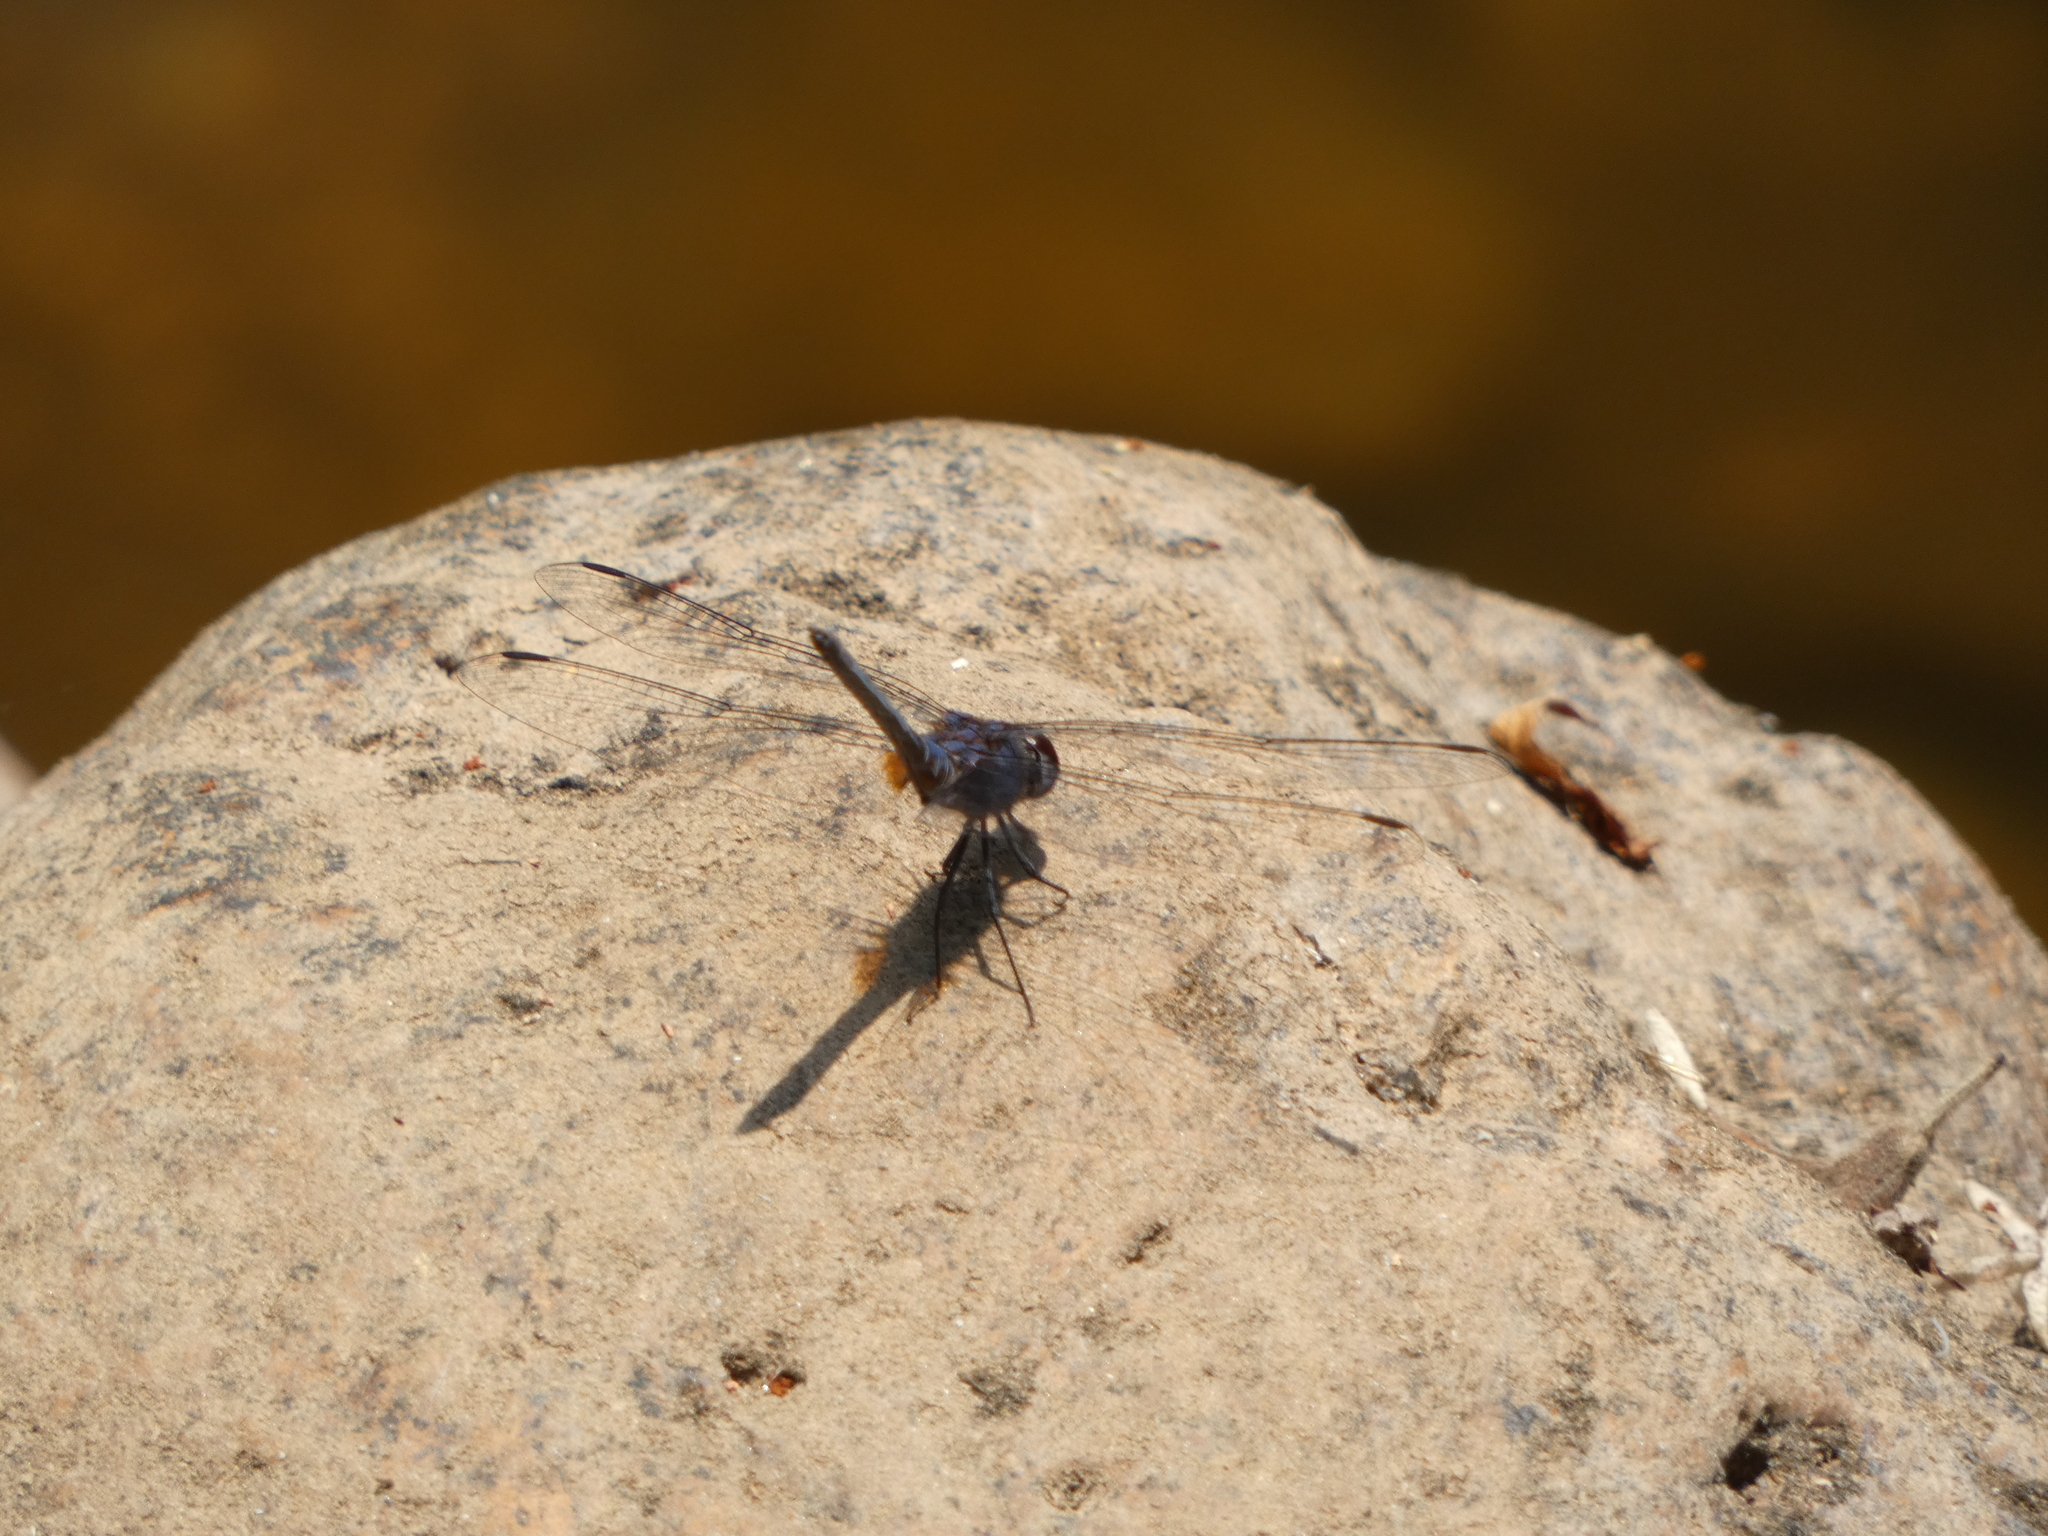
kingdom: Animalia
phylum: Arthropoda
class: Insecta
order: Odonata
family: Libellulidae
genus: Trithemis
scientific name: Trithemis festiva
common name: Indigo dropwing
